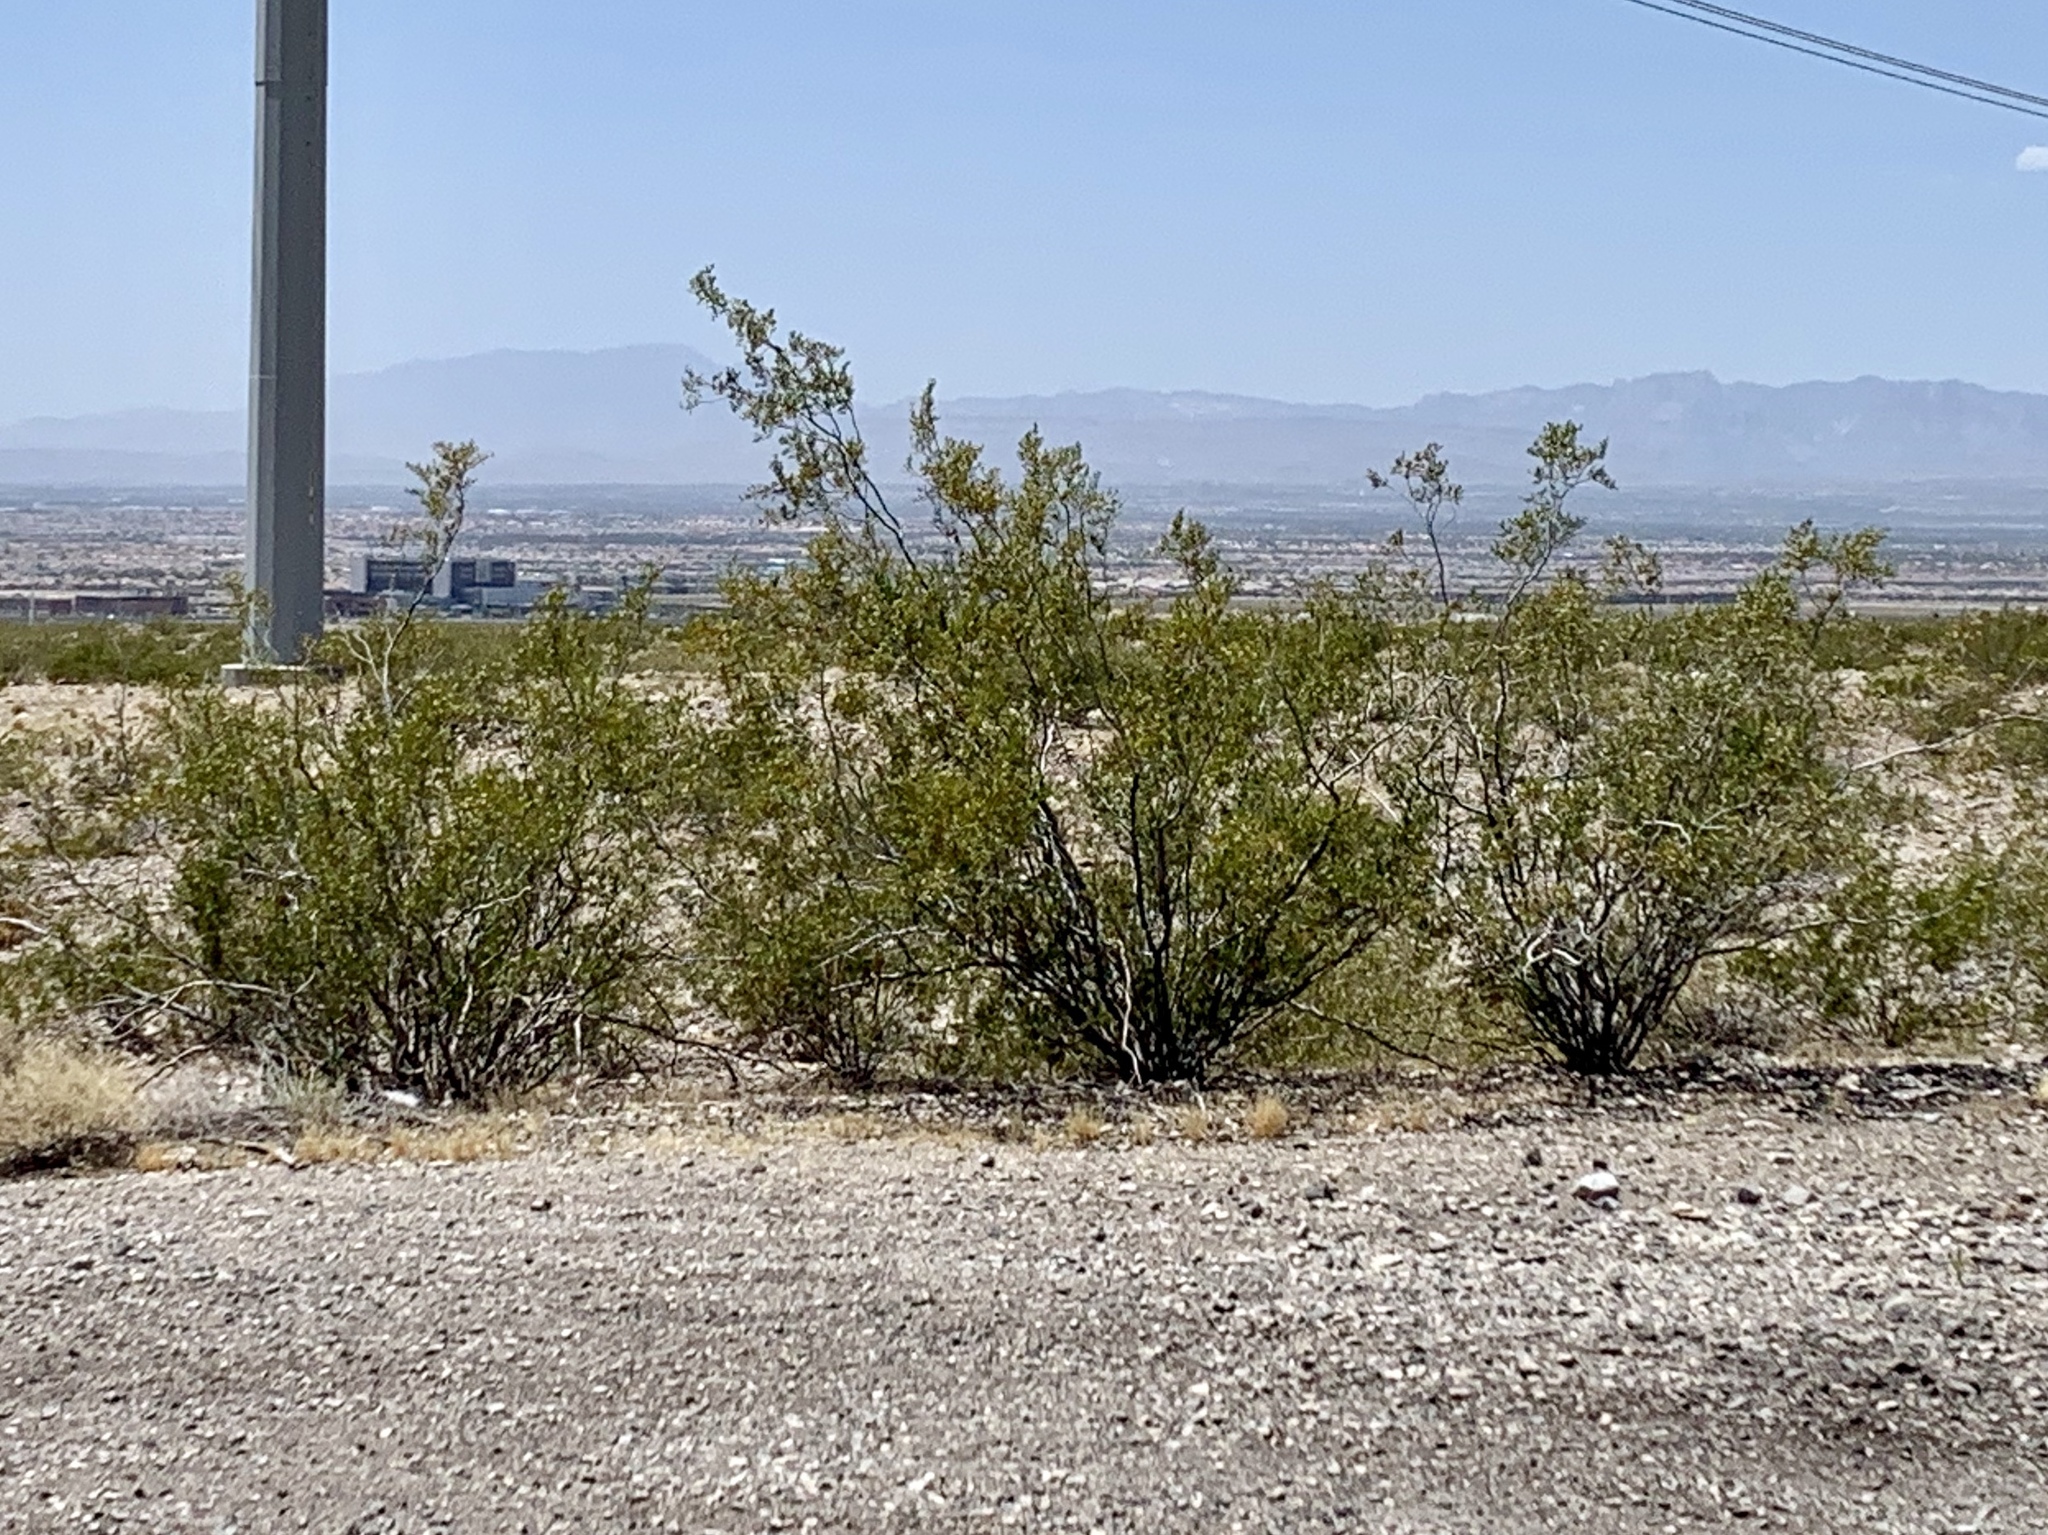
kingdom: Plantae
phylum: Tracheophyta
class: Magnoliopsida
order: Zygophyllales
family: Zygophyllaceae
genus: Larrea
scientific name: Larrea tridentata
